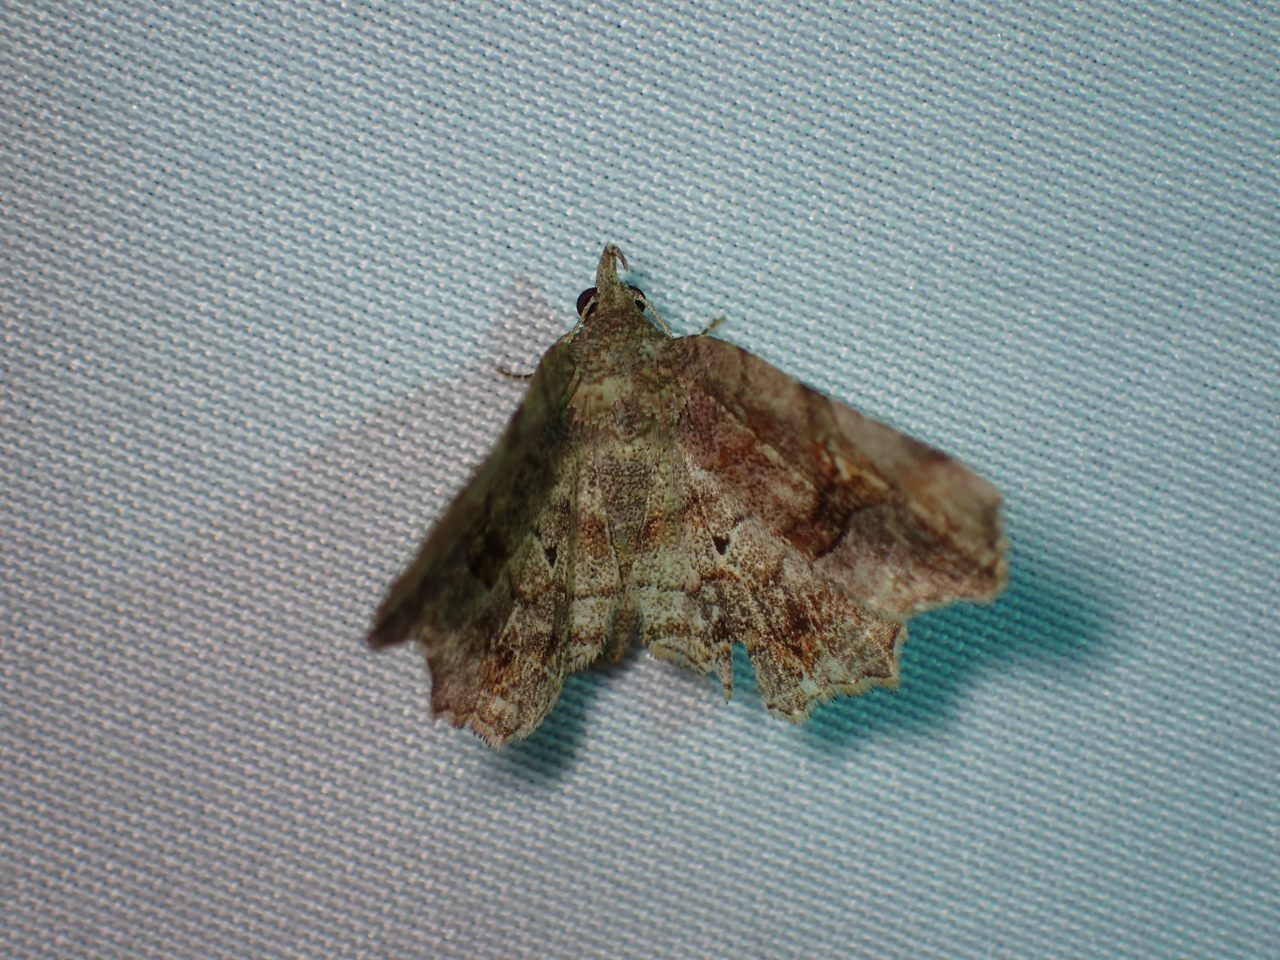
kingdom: Animalia
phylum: Arthropoda
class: Insecta
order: Lepidoptera
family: Erebidae
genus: Pangrapta
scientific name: Pangrapta decoralis
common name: Decorated owlet
